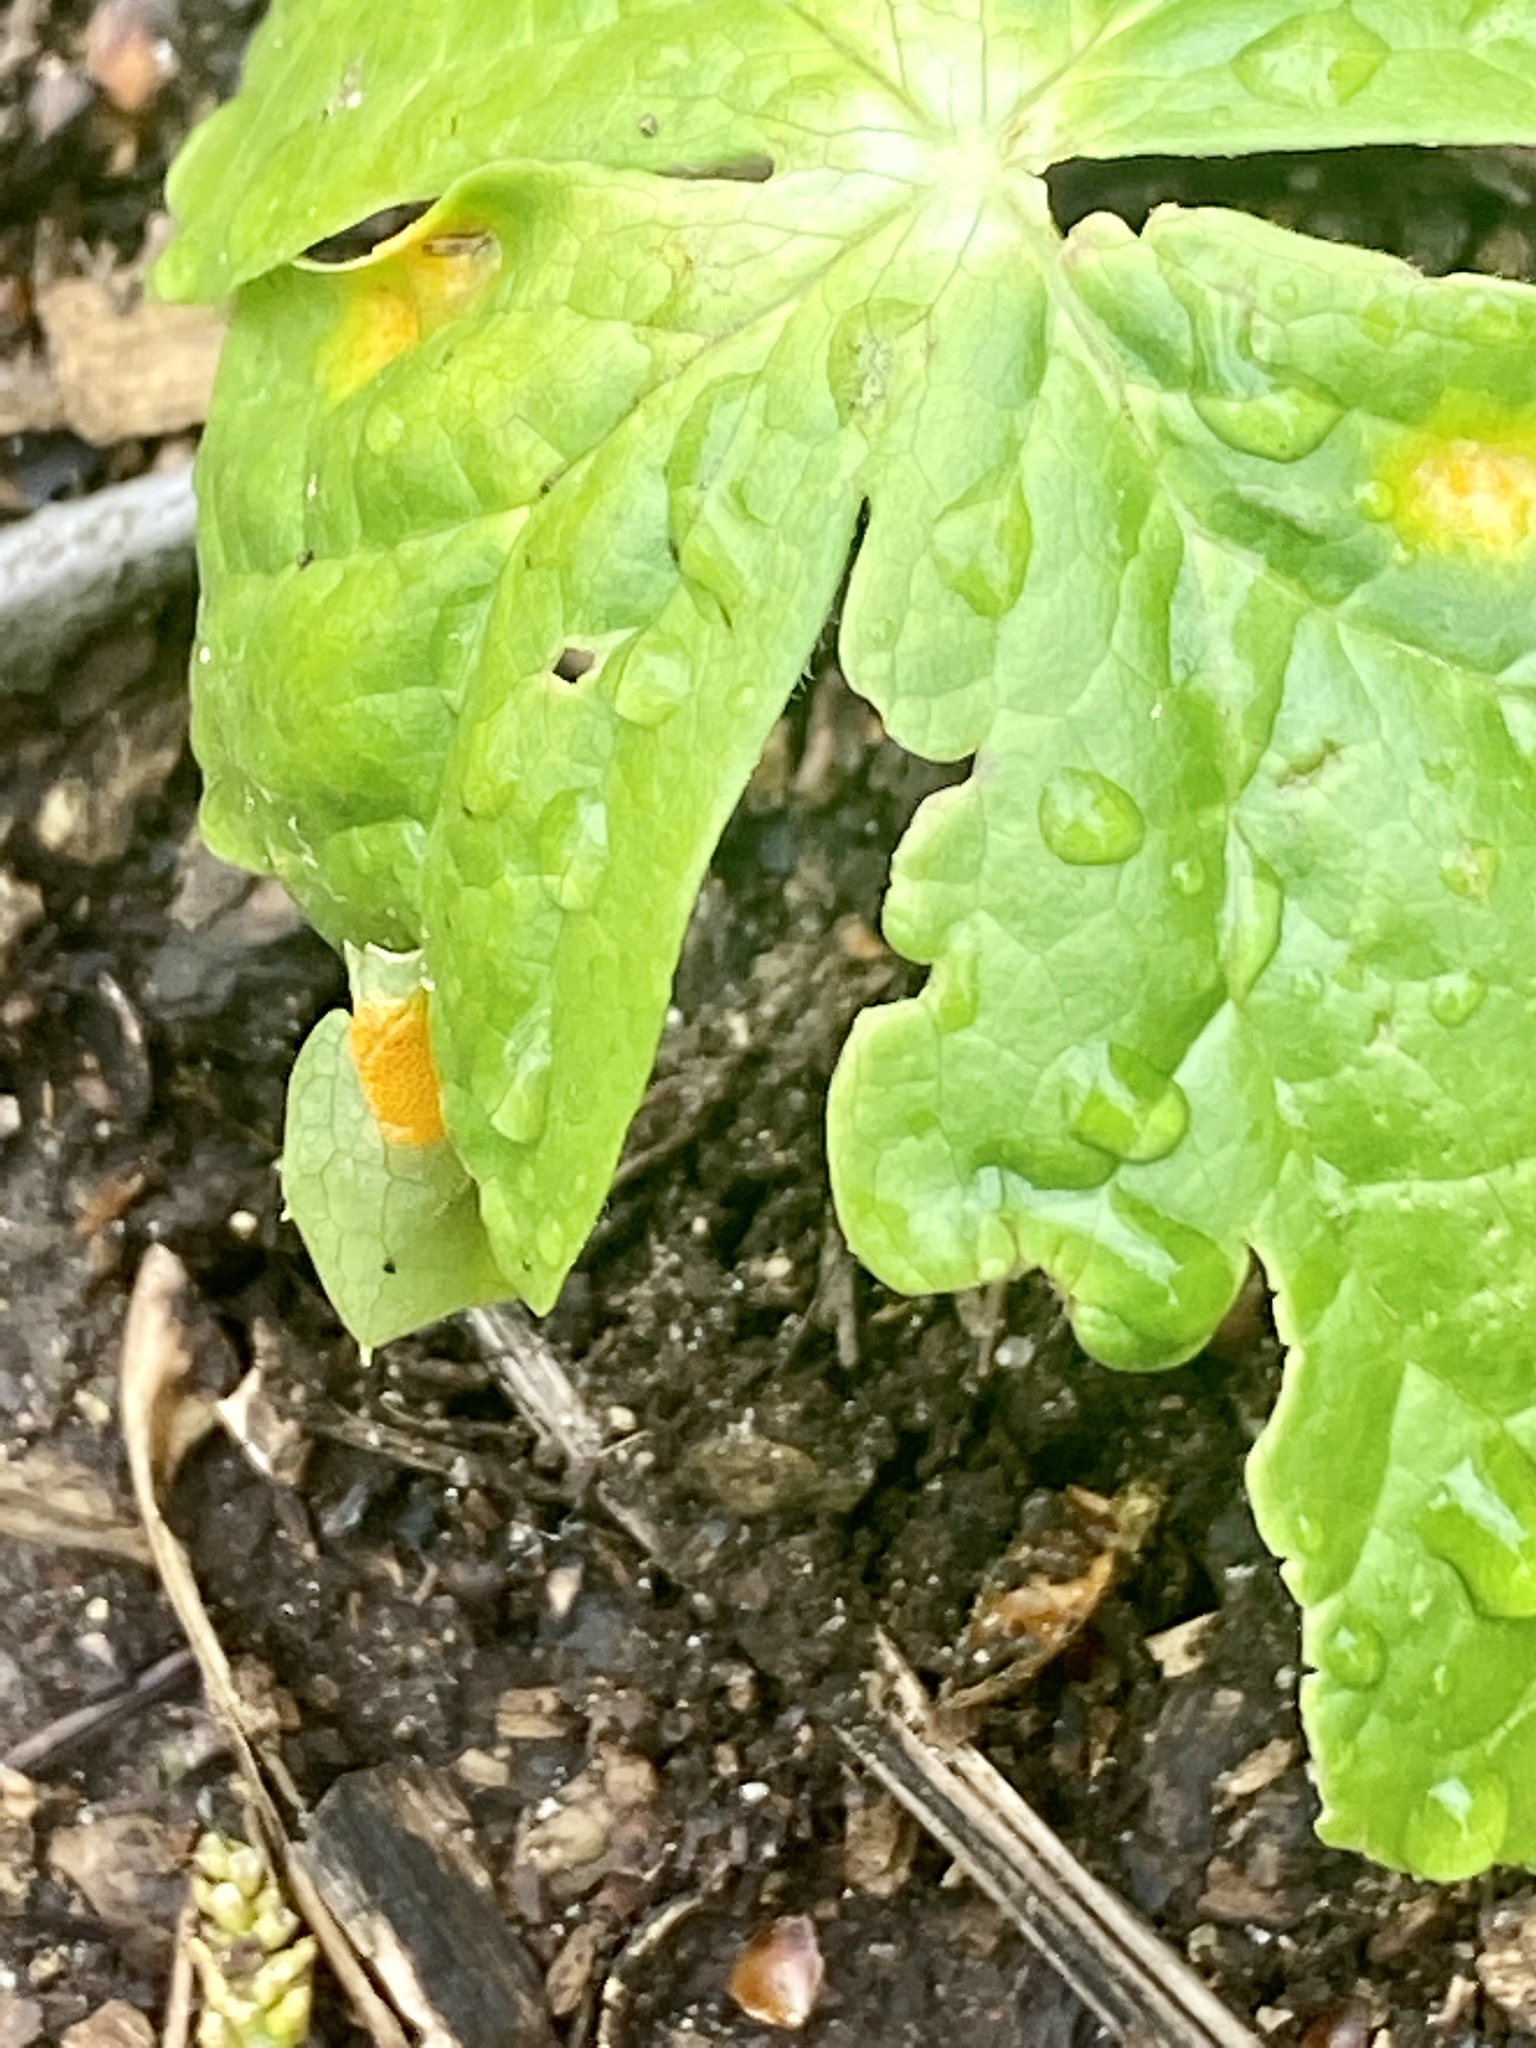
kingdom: Fungi
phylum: Basidiomycota
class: Pucciniomycetes
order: Pucciniales
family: Pucciniaceae
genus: Puccinia
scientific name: Puccinia podophylli
